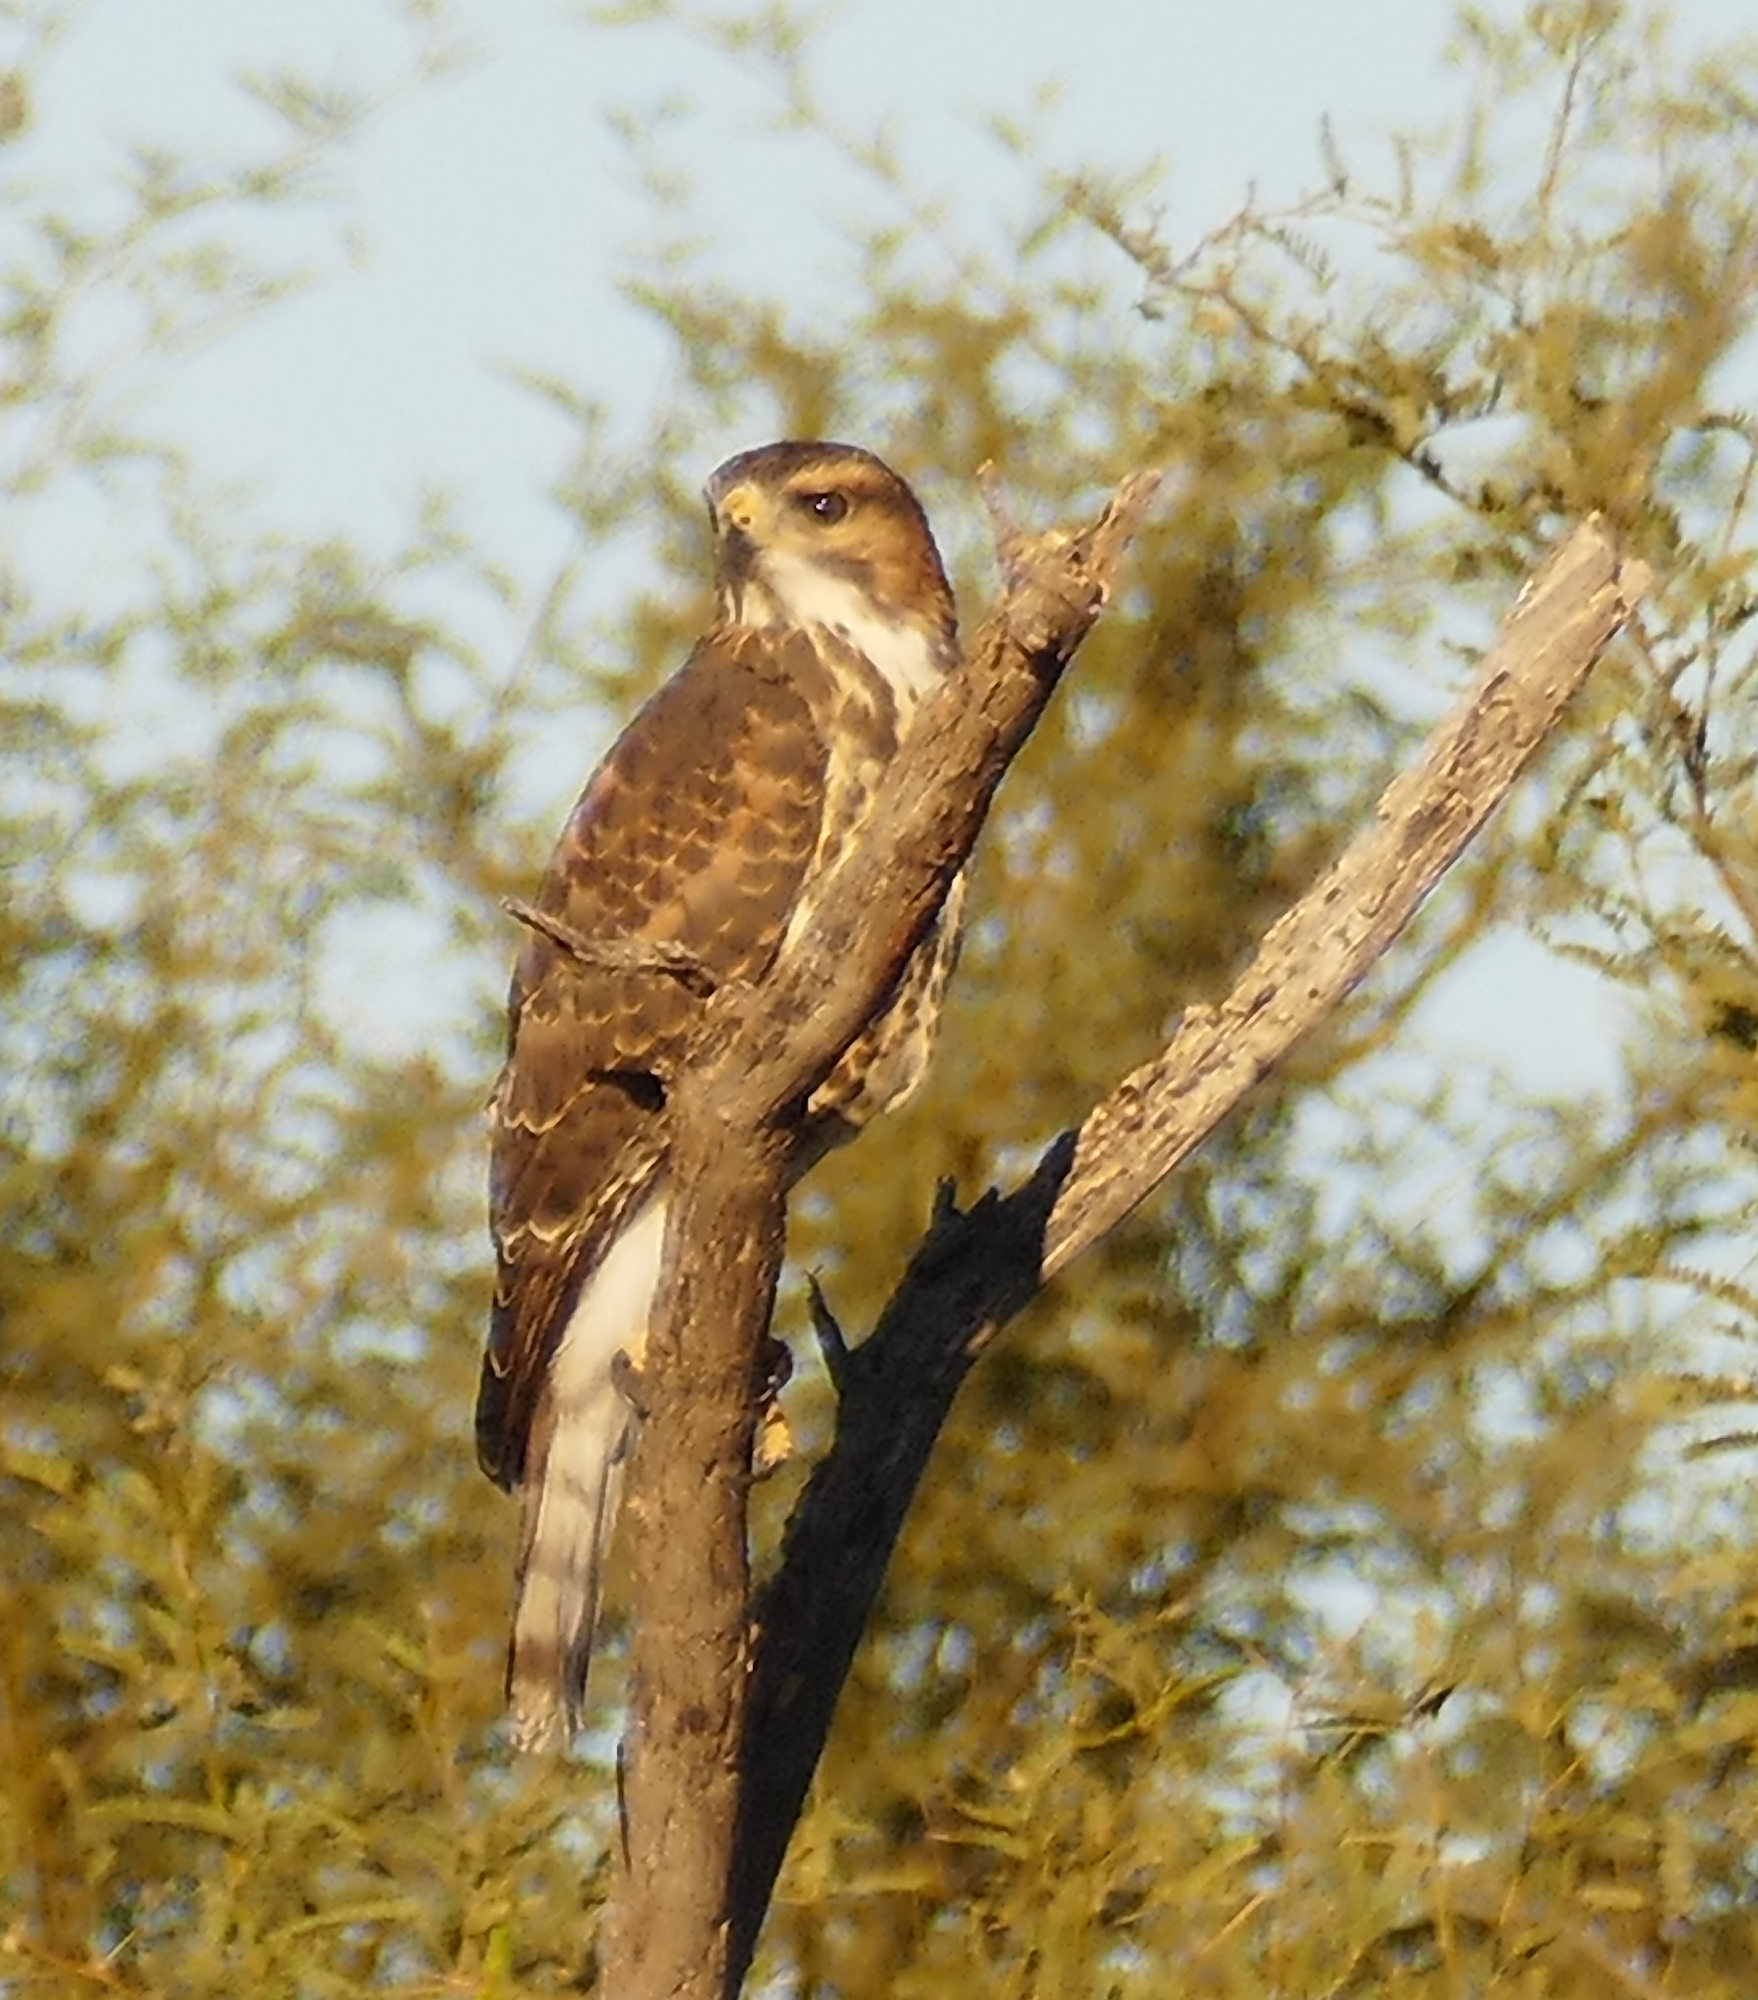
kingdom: Animalia
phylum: Chordata
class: Aves
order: Accipitriformes
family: Accipitridae
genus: Buteo
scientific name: Buteo nitidus
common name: Grey-lined hawk
